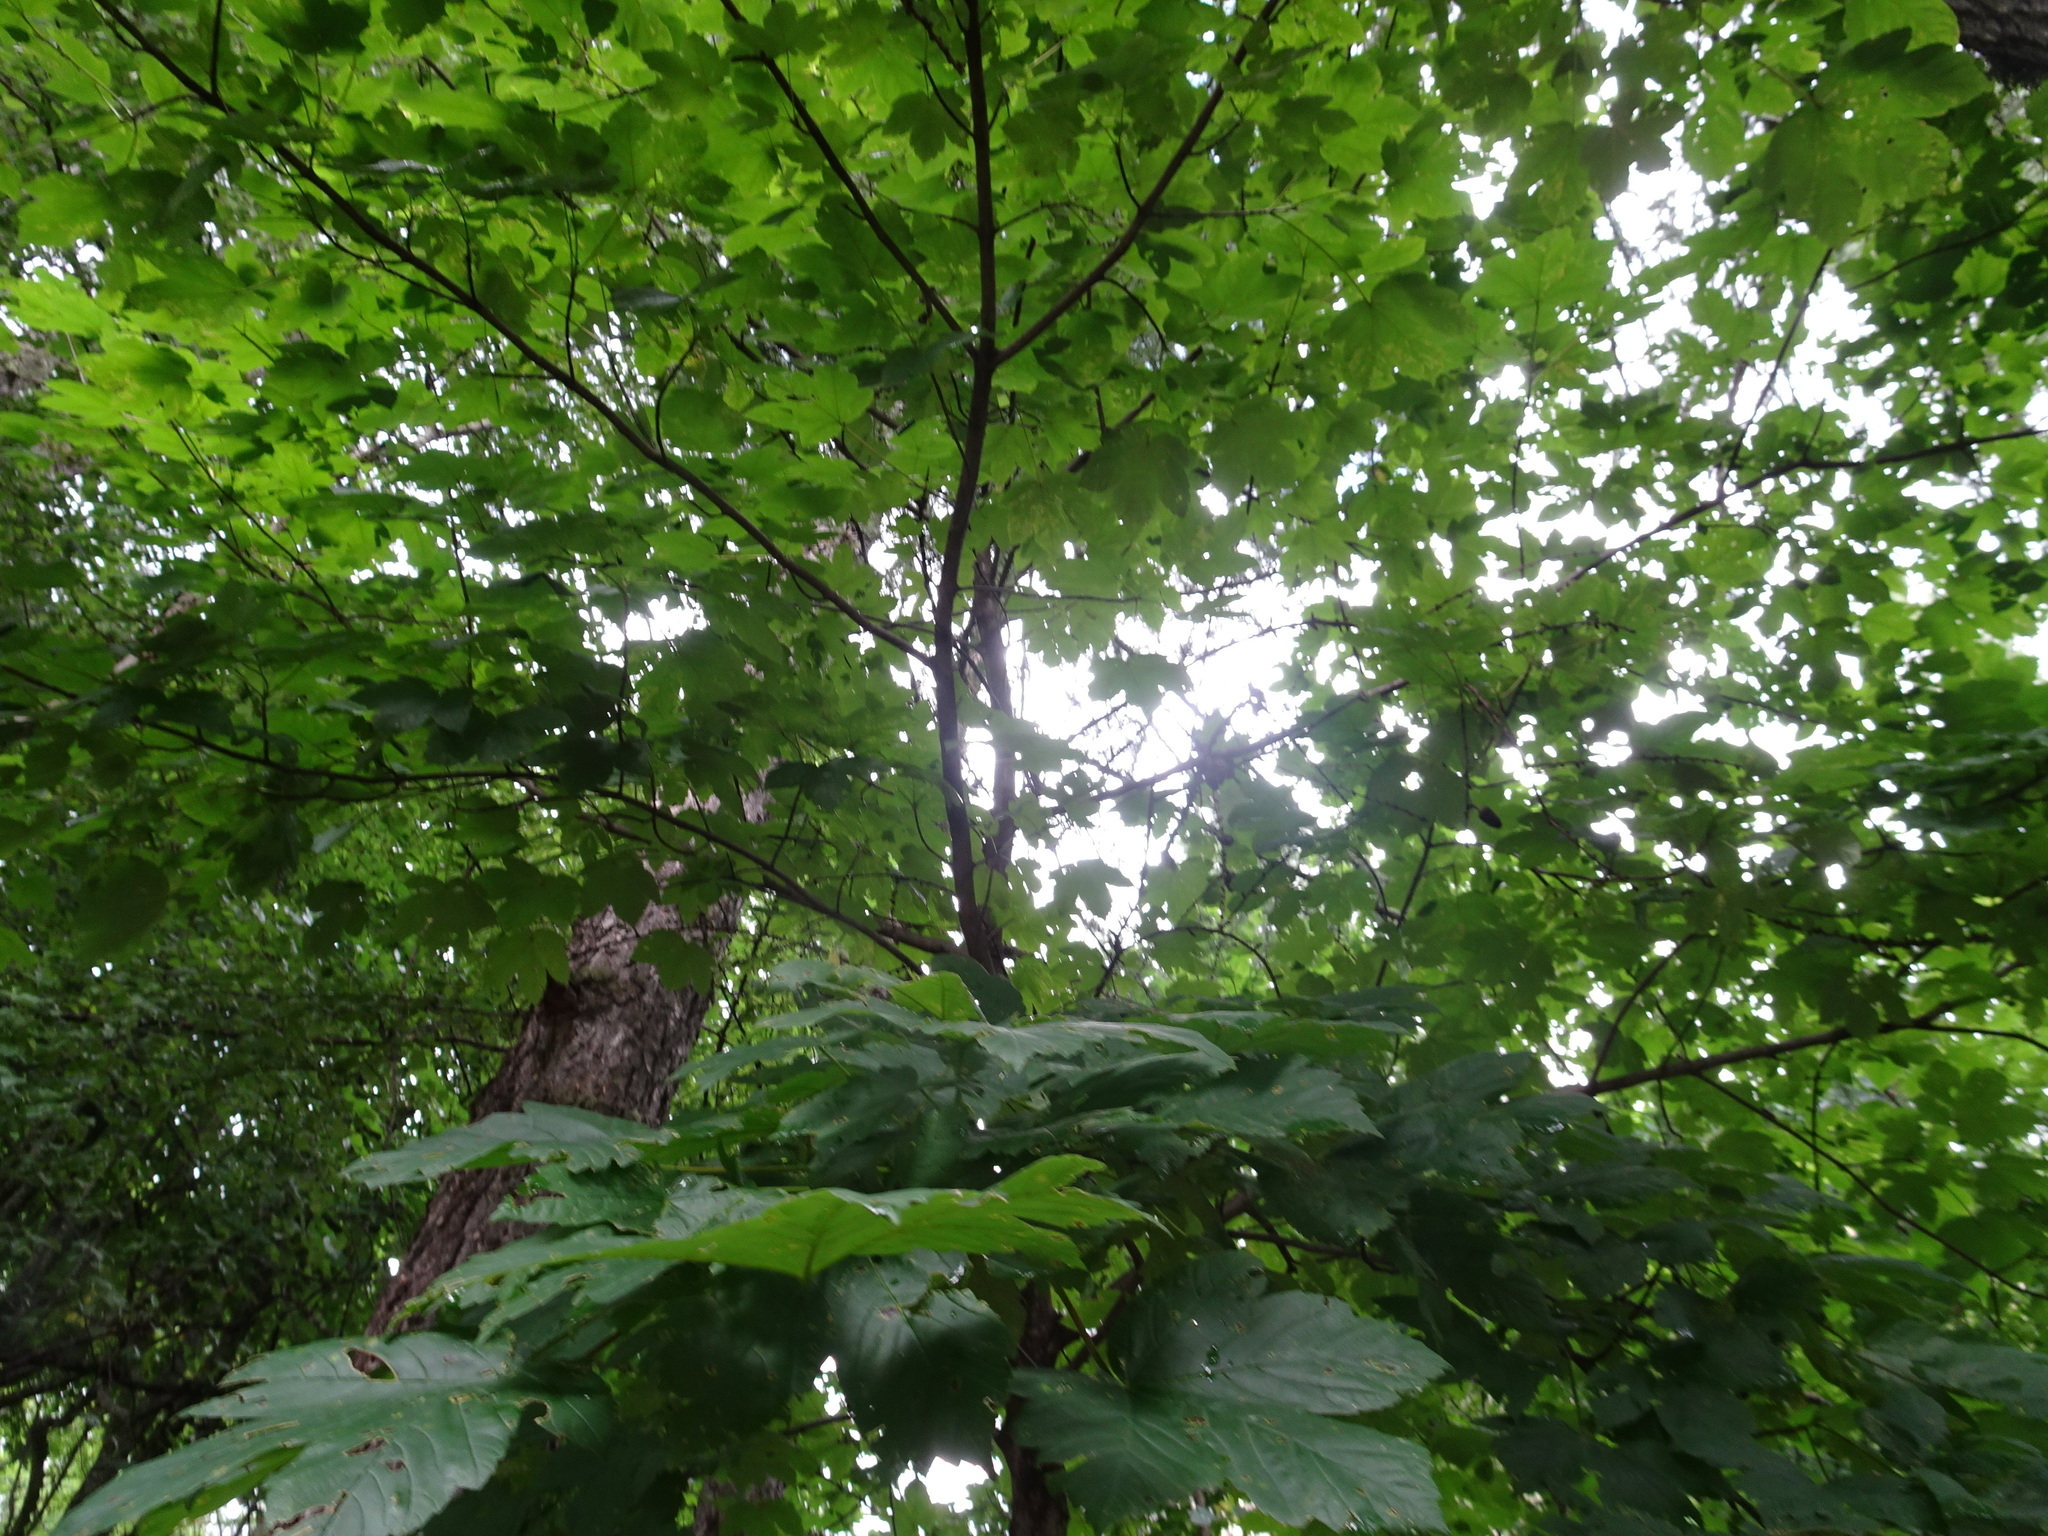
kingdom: Plantae
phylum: Tracheophyta
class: Magnoliopsida
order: Sapindales
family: Sapindaceae
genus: Acer
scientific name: Acer pseudoplatanus
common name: Sycamore
